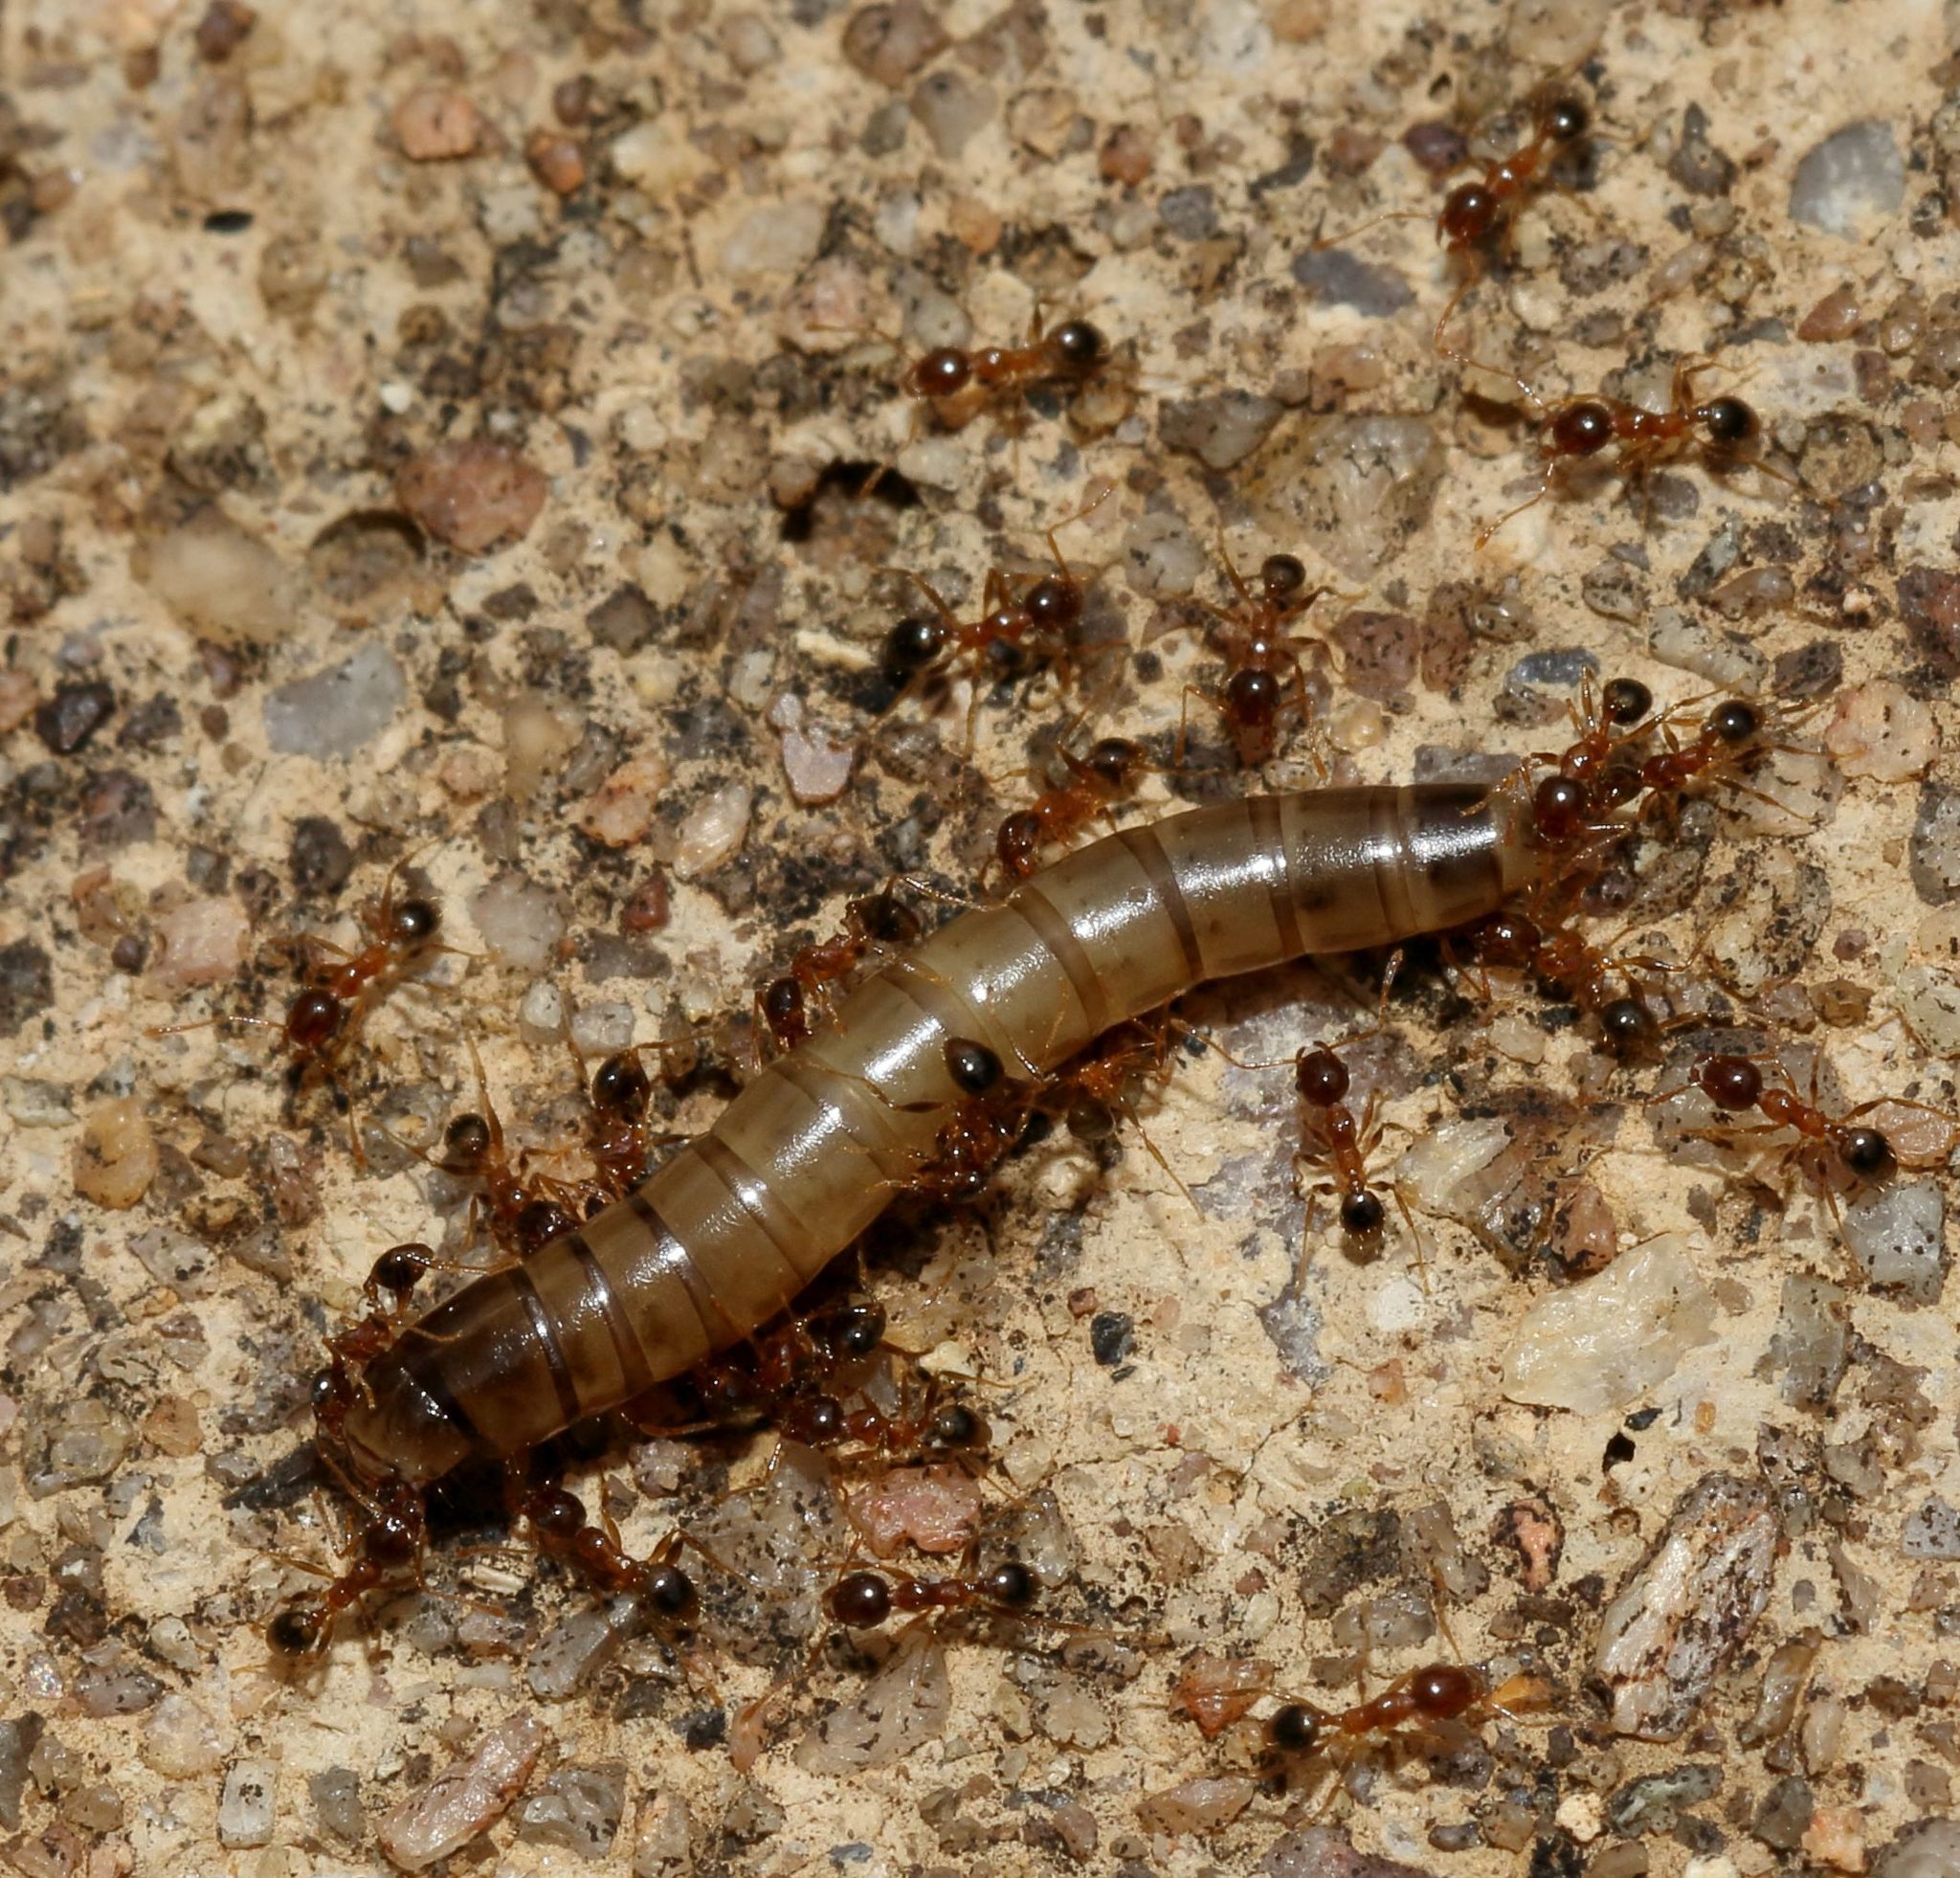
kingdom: Animalia
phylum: Arthropoda
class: Insecta
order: Hymenoptera
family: Formicidae
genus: Pheidole
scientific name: Pheidole caffra
